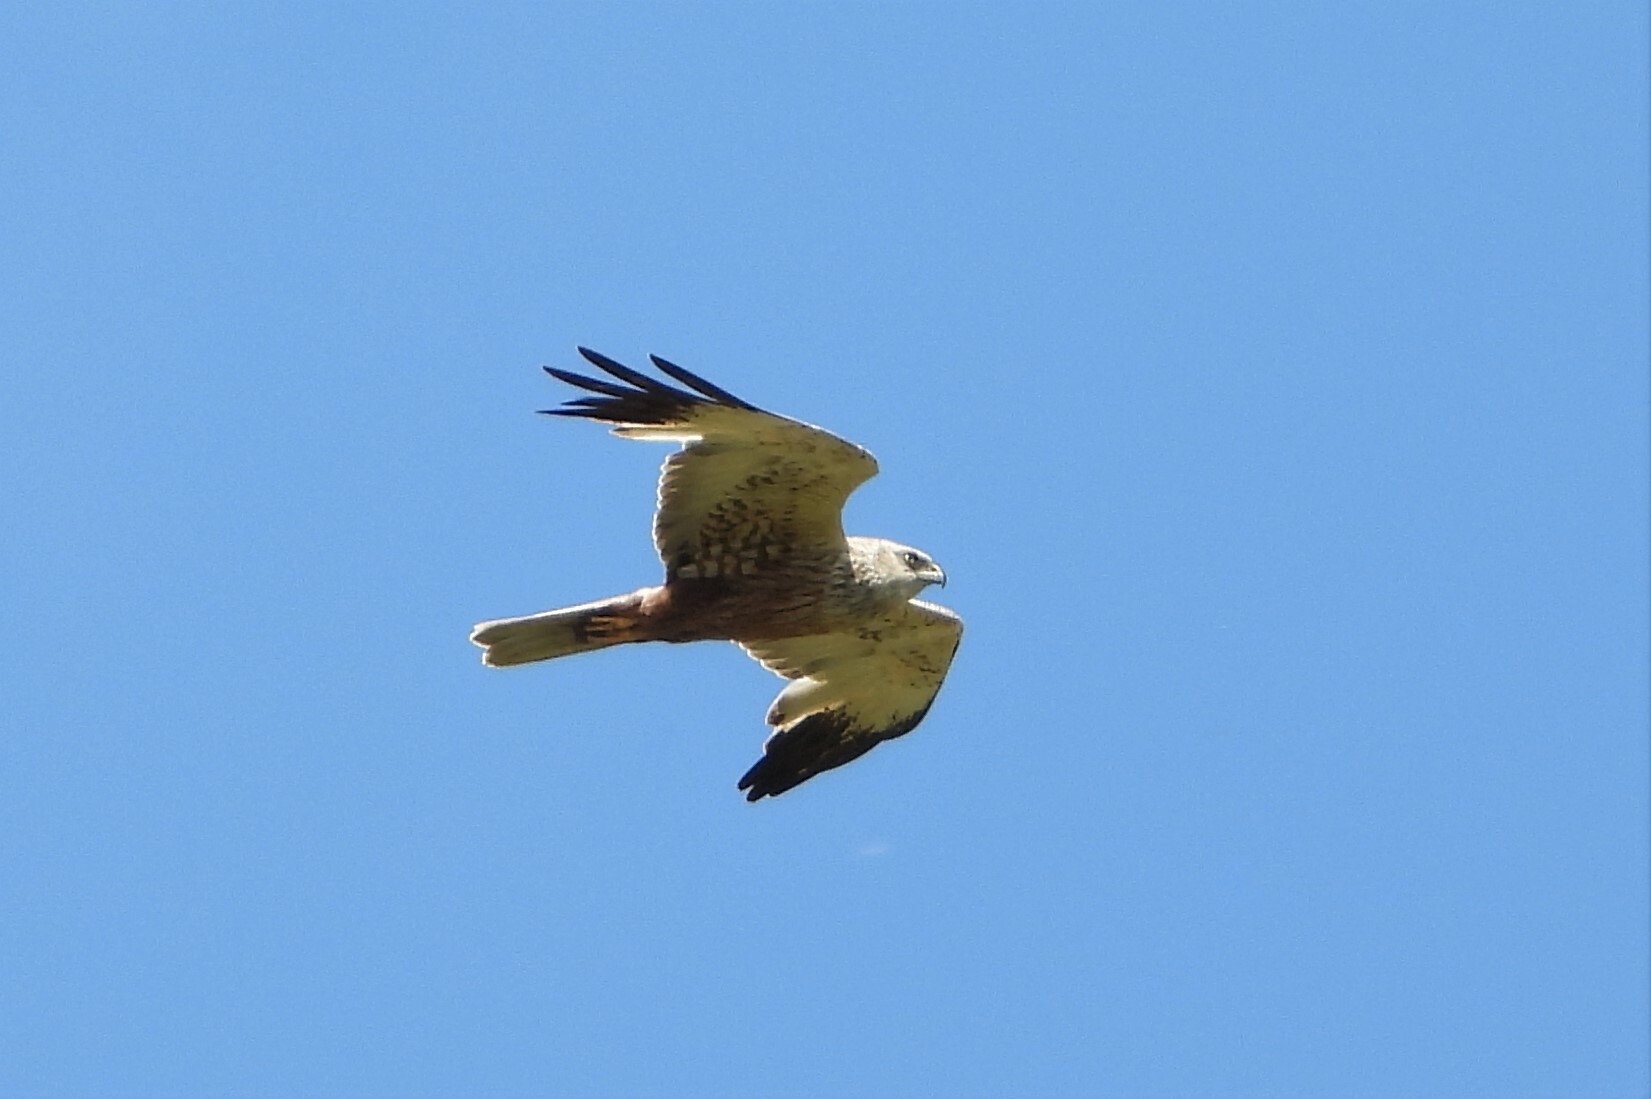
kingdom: Animalia
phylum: Chordata
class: Aves
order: Accipitriformes
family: Accipitridae
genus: Circus
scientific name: Circus aeruginosus
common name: Western marsh harrier
